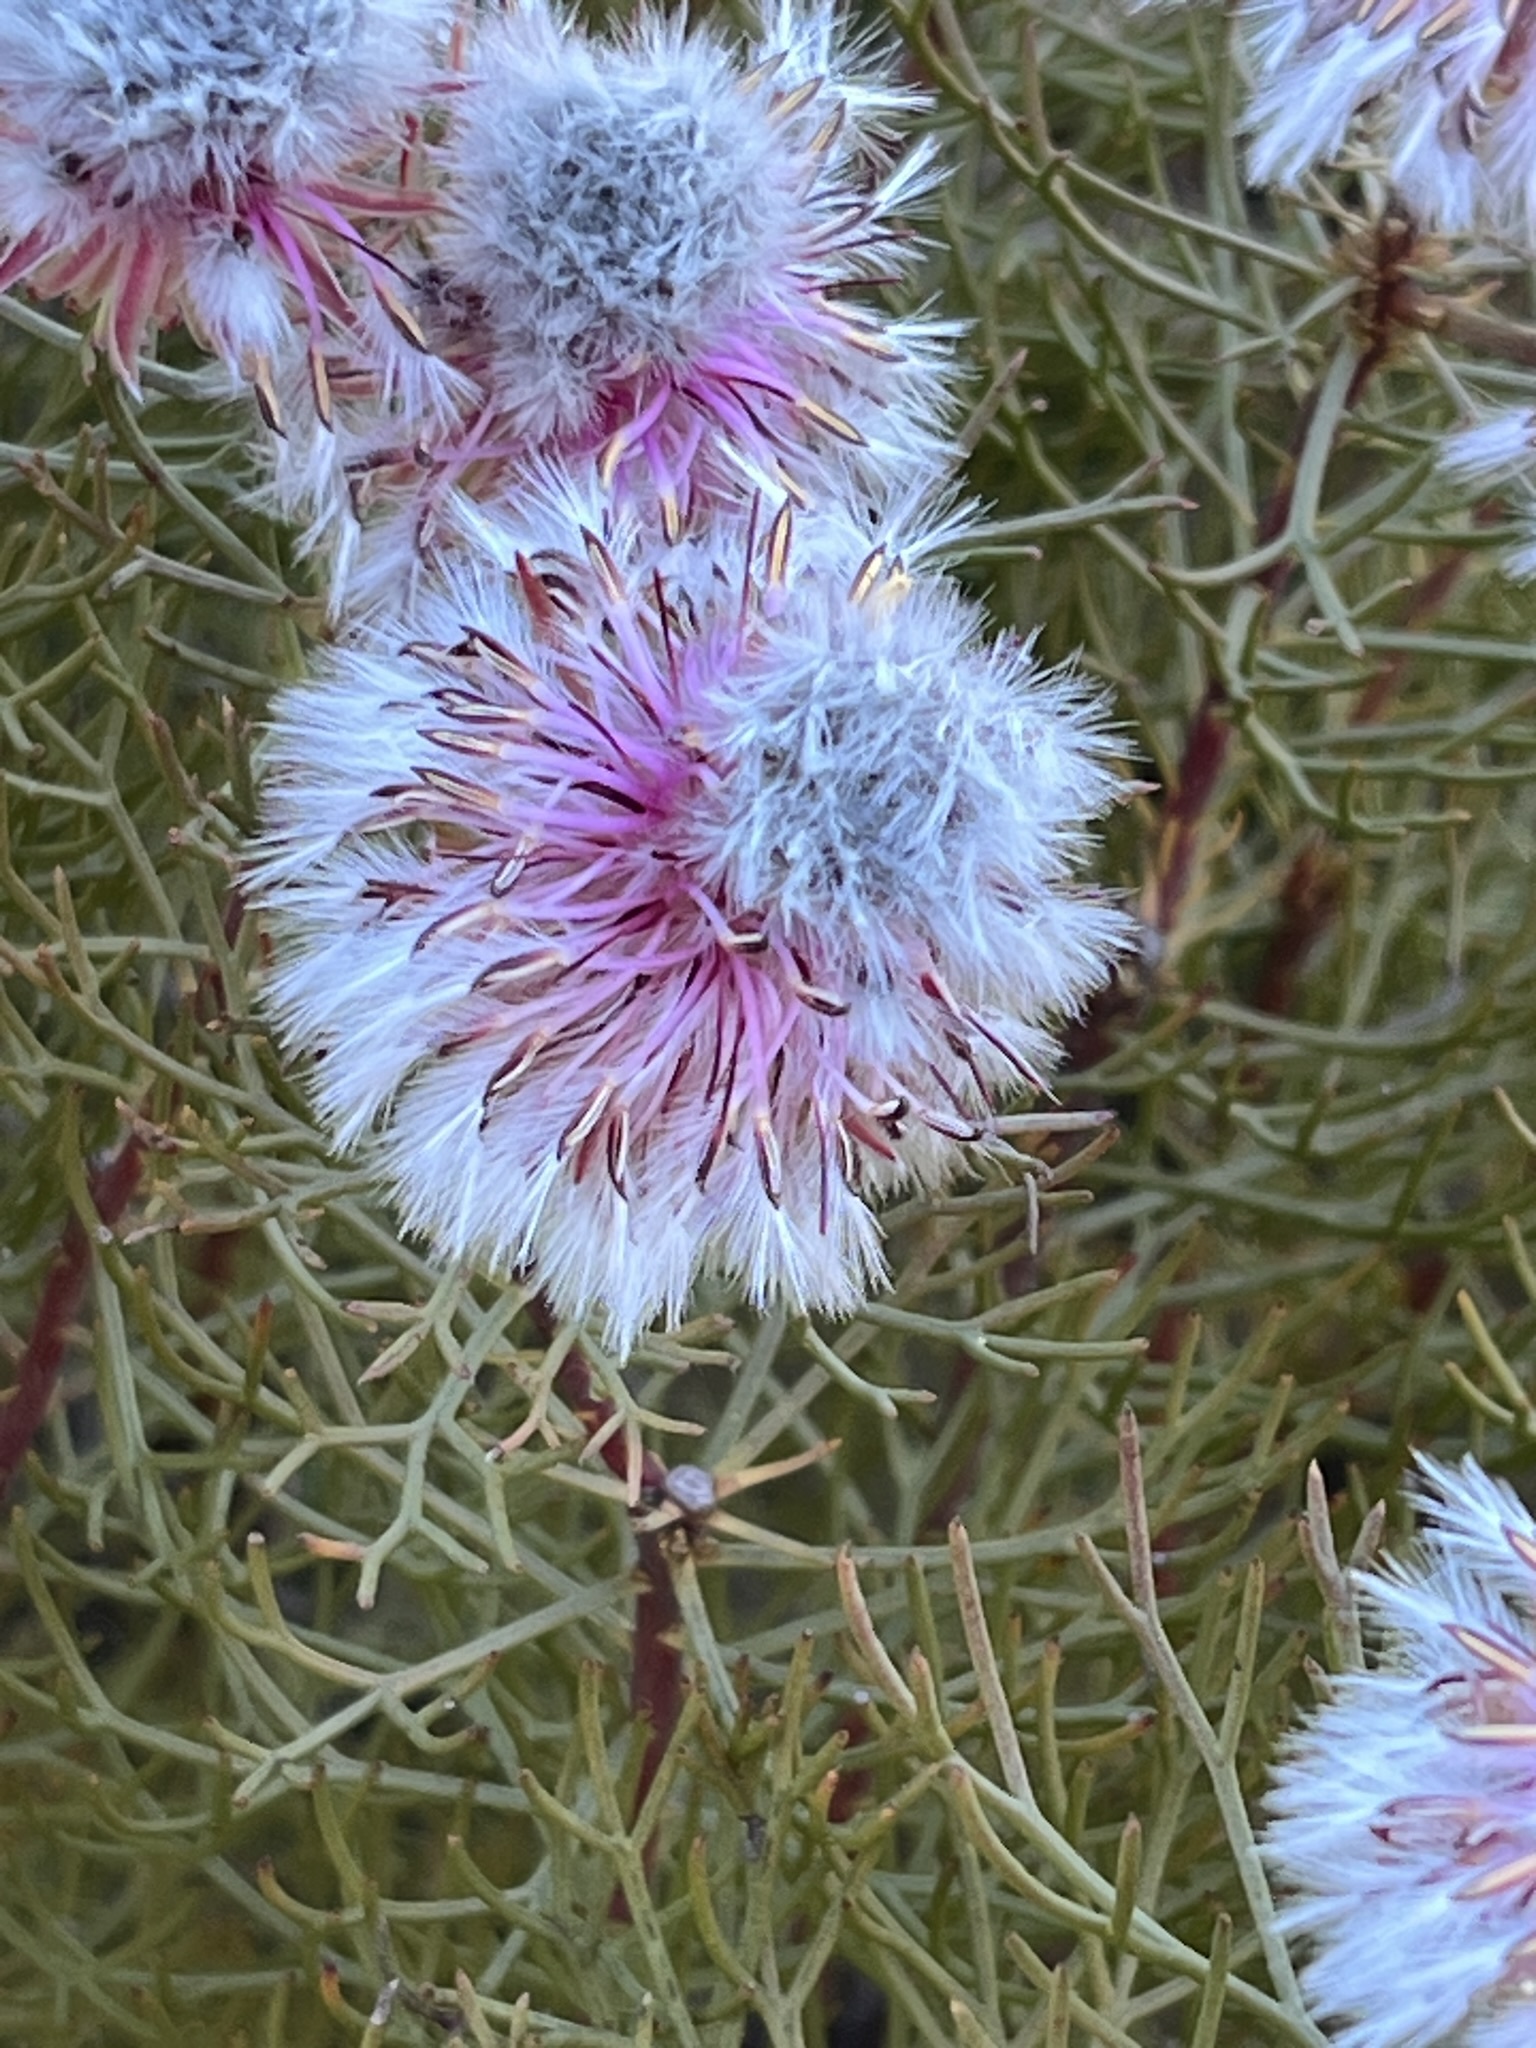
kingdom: Plantae
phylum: Tracheophyta
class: Magnoliopsida
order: Proteales
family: Proteaceae
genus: Serruria
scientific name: Serruria phylicoides
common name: Bearded spiderhead
